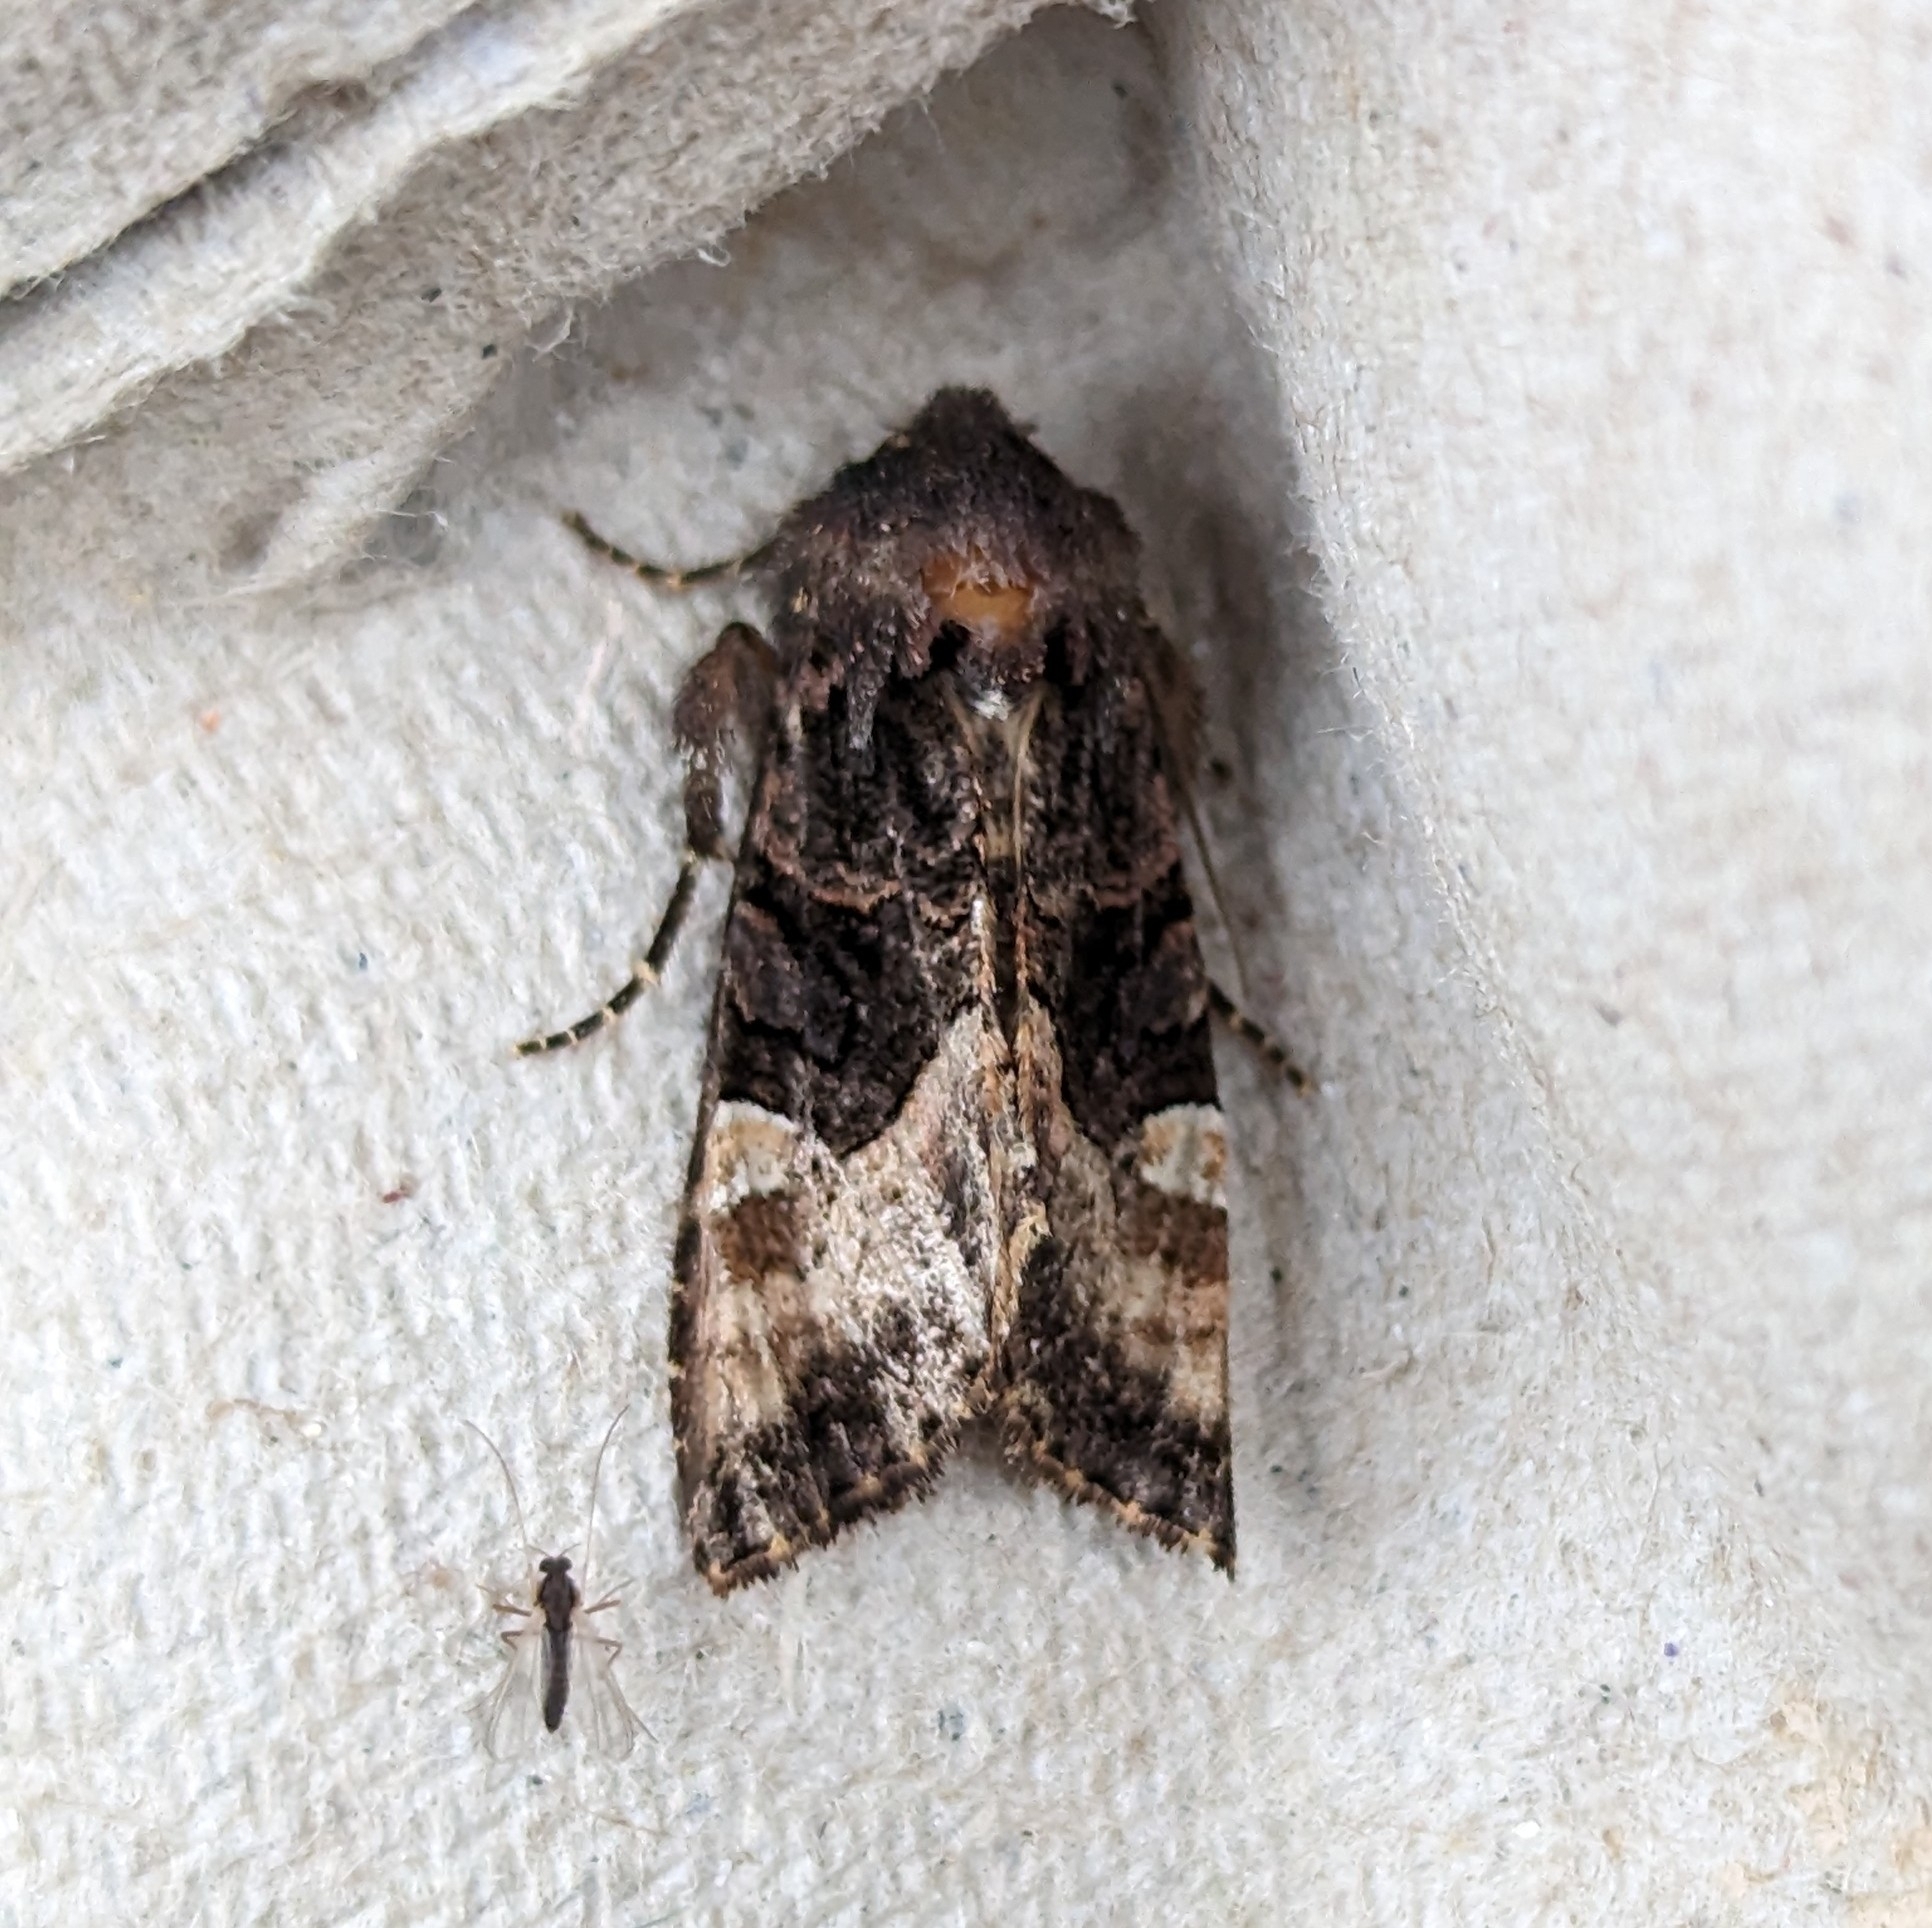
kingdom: Animalia
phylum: Arthropoda
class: Insecta
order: Lepidoptera
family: Noctuidae
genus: Euplexia
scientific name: Euplexia benesimilis
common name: American angle shades
